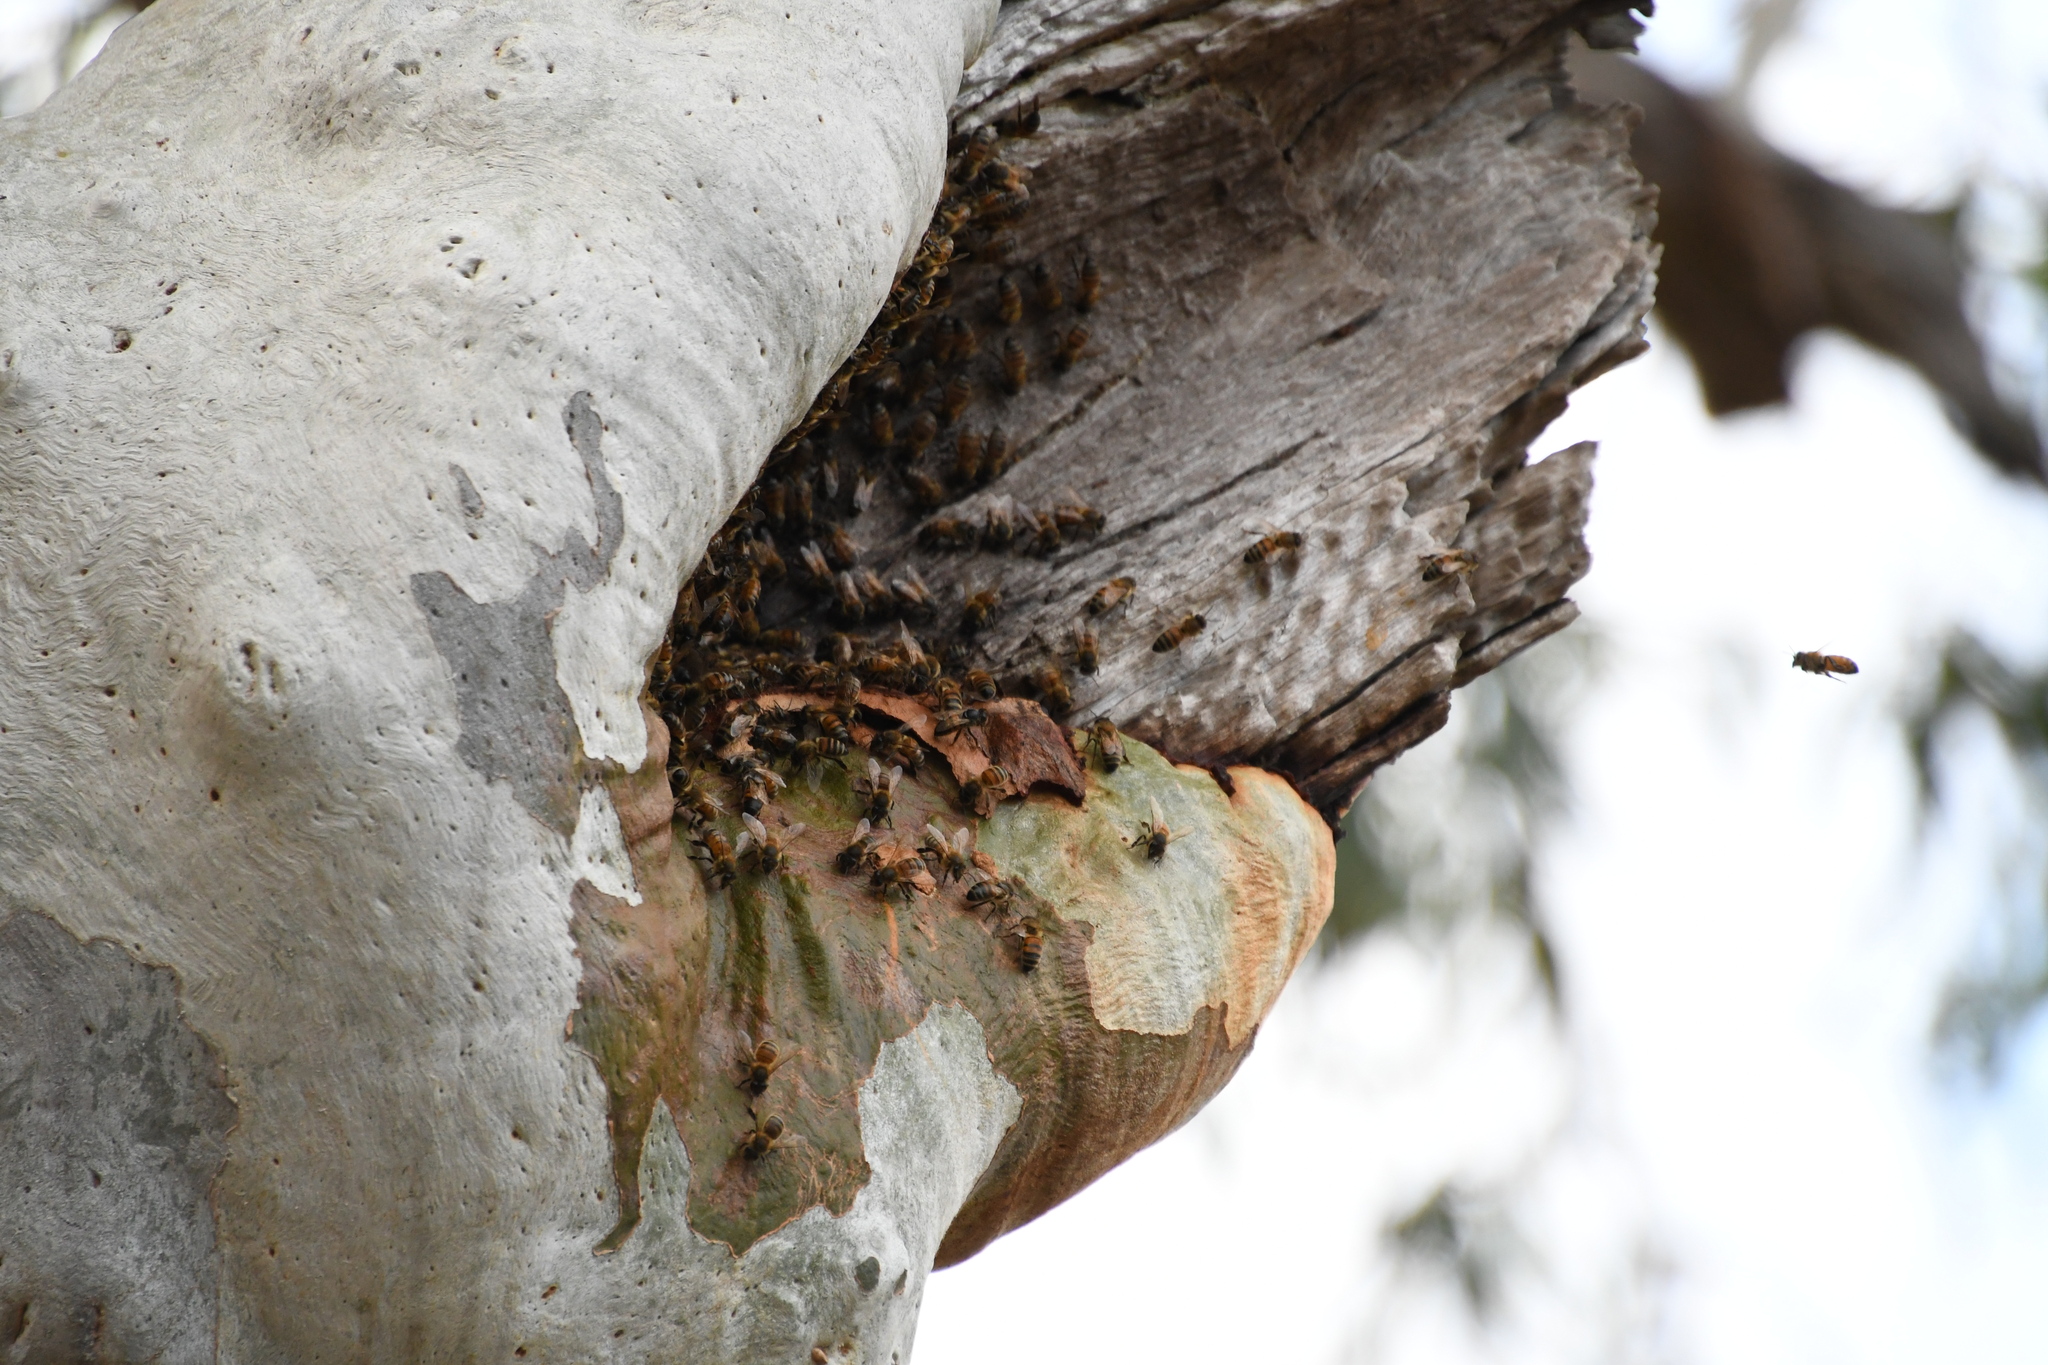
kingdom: Animalia
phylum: Arthropoda
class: Insecta
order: Hymenoptera
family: Apidae
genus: Apis
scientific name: Apis mellifera
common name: Honey bee
